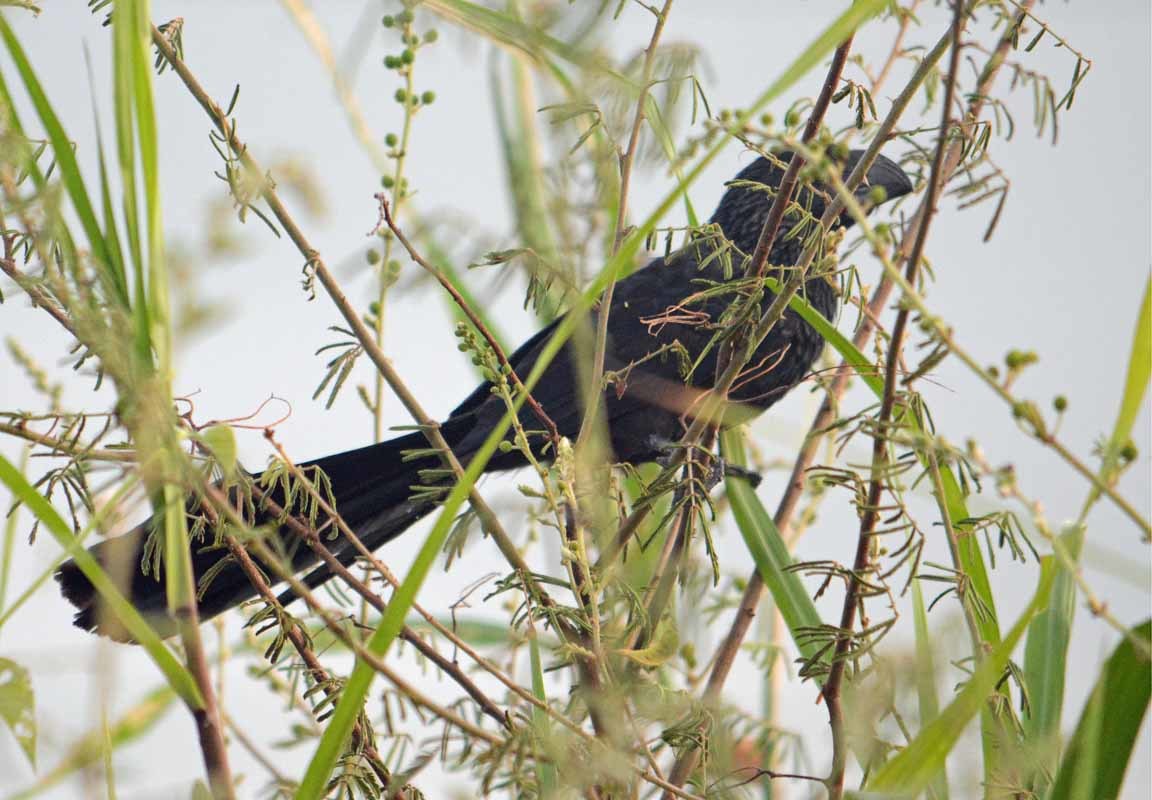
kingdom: Animalia
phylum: Chordata
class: Aves
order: Cuculiformes
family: Cuculidae
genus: Crotophaga
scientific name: Crotophaga sulcirostris
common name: Groove-billed ani
